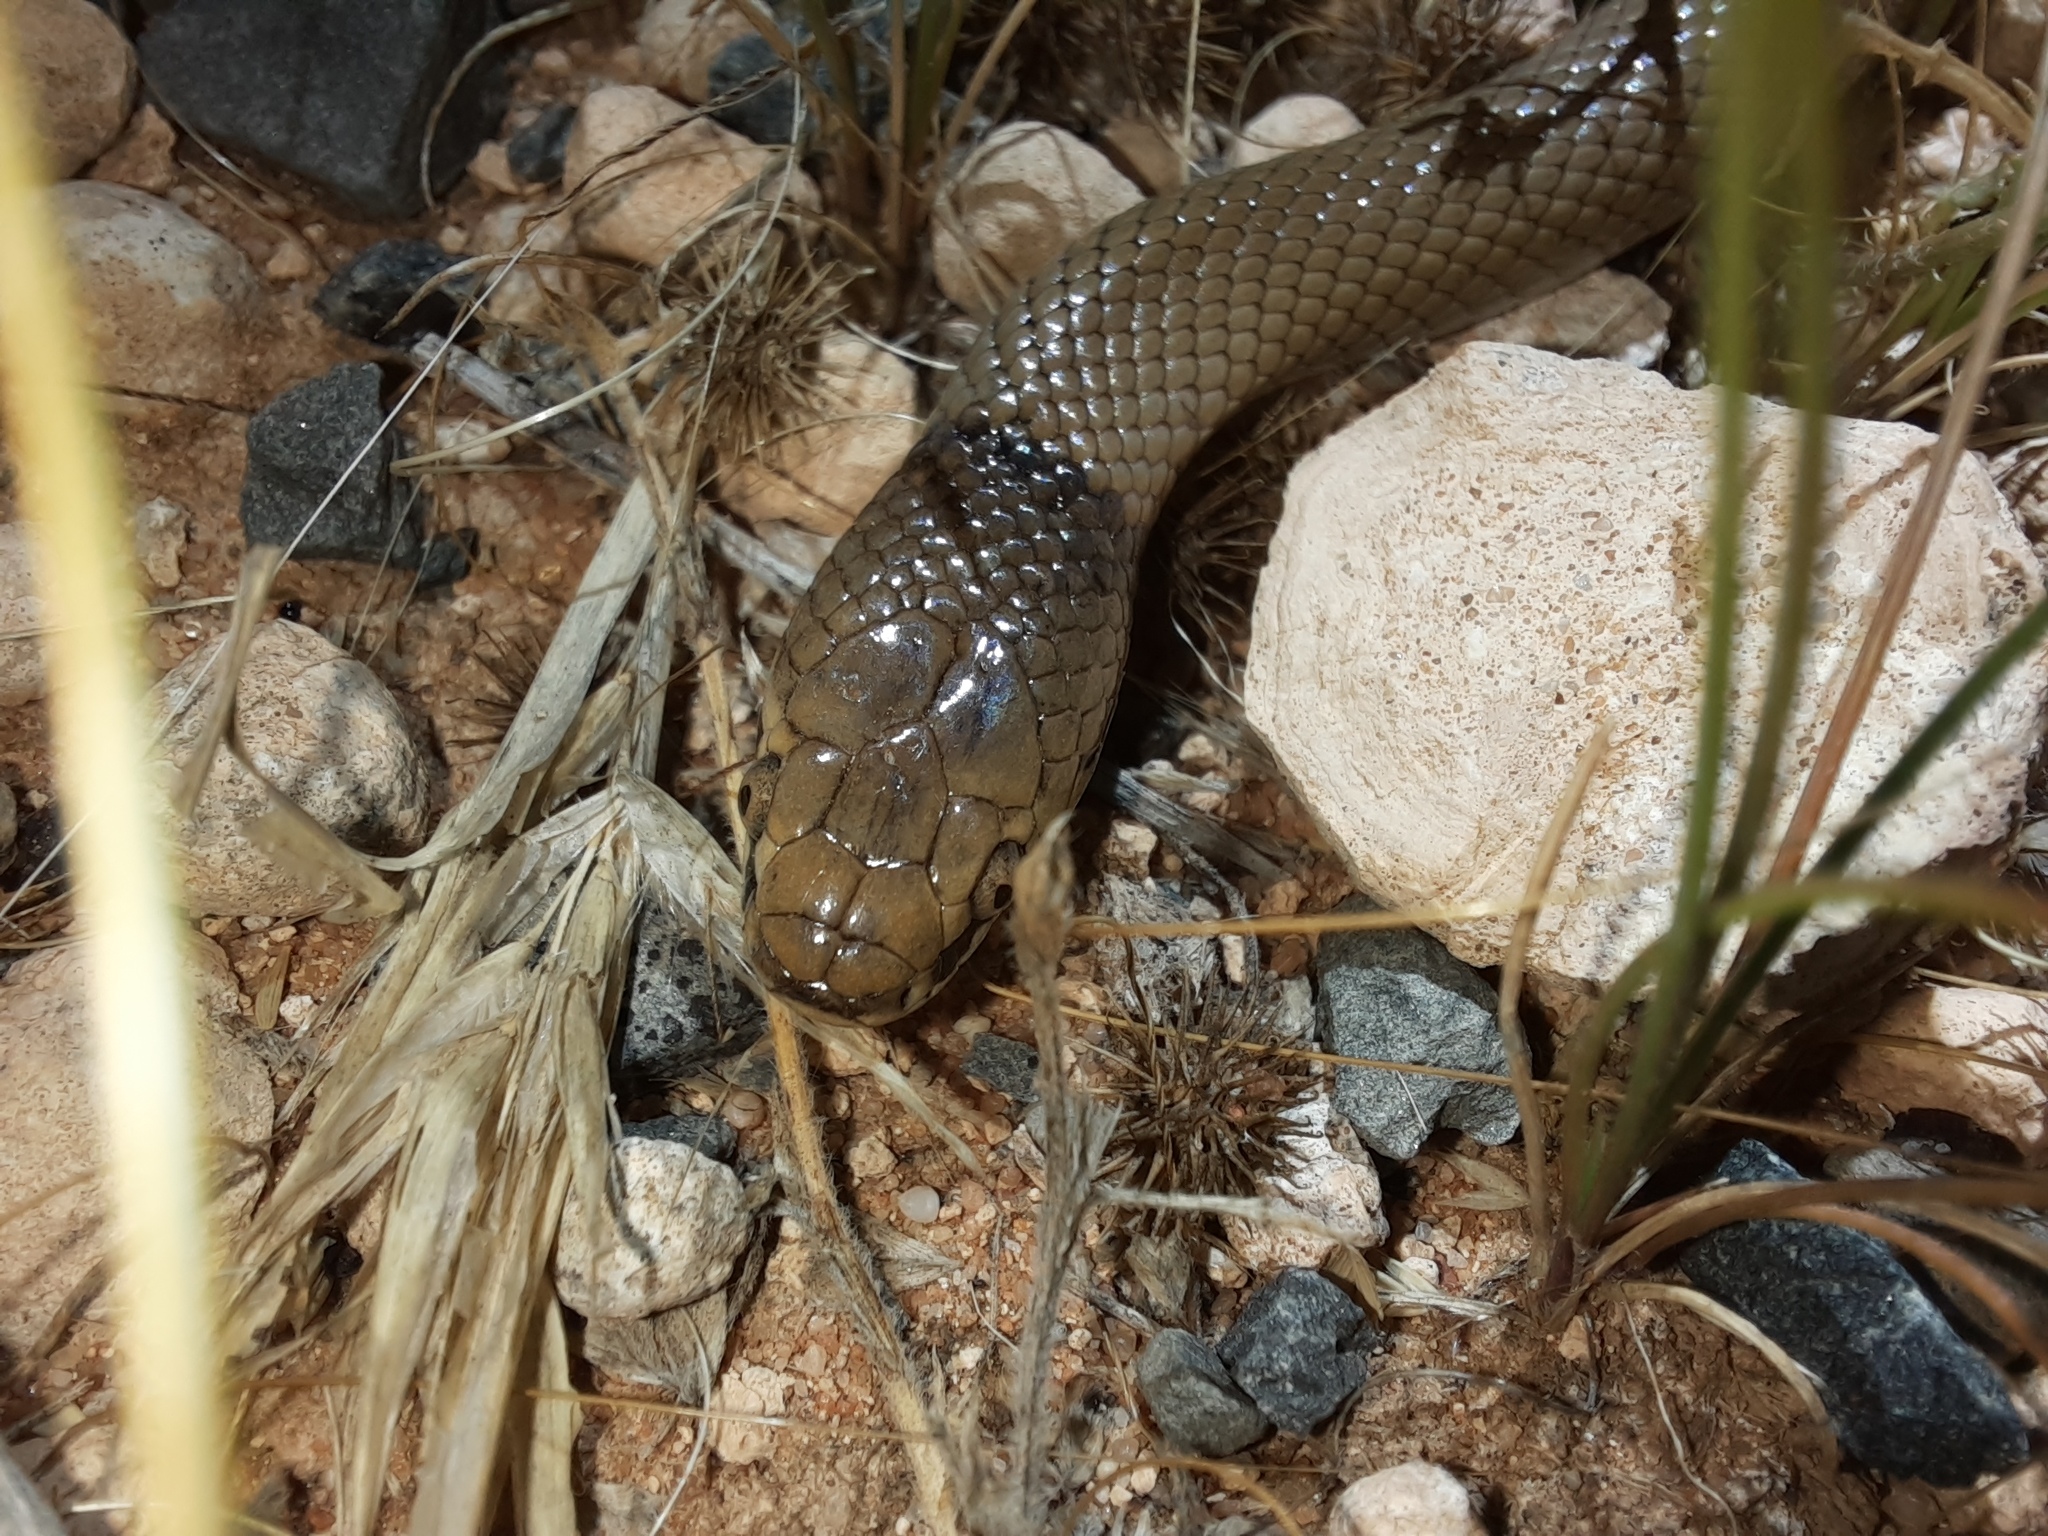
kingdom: Animalia
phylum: Chordata
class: Squamata
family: Elapidae
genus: Suta
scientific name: Suta suta
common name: Curl snake
